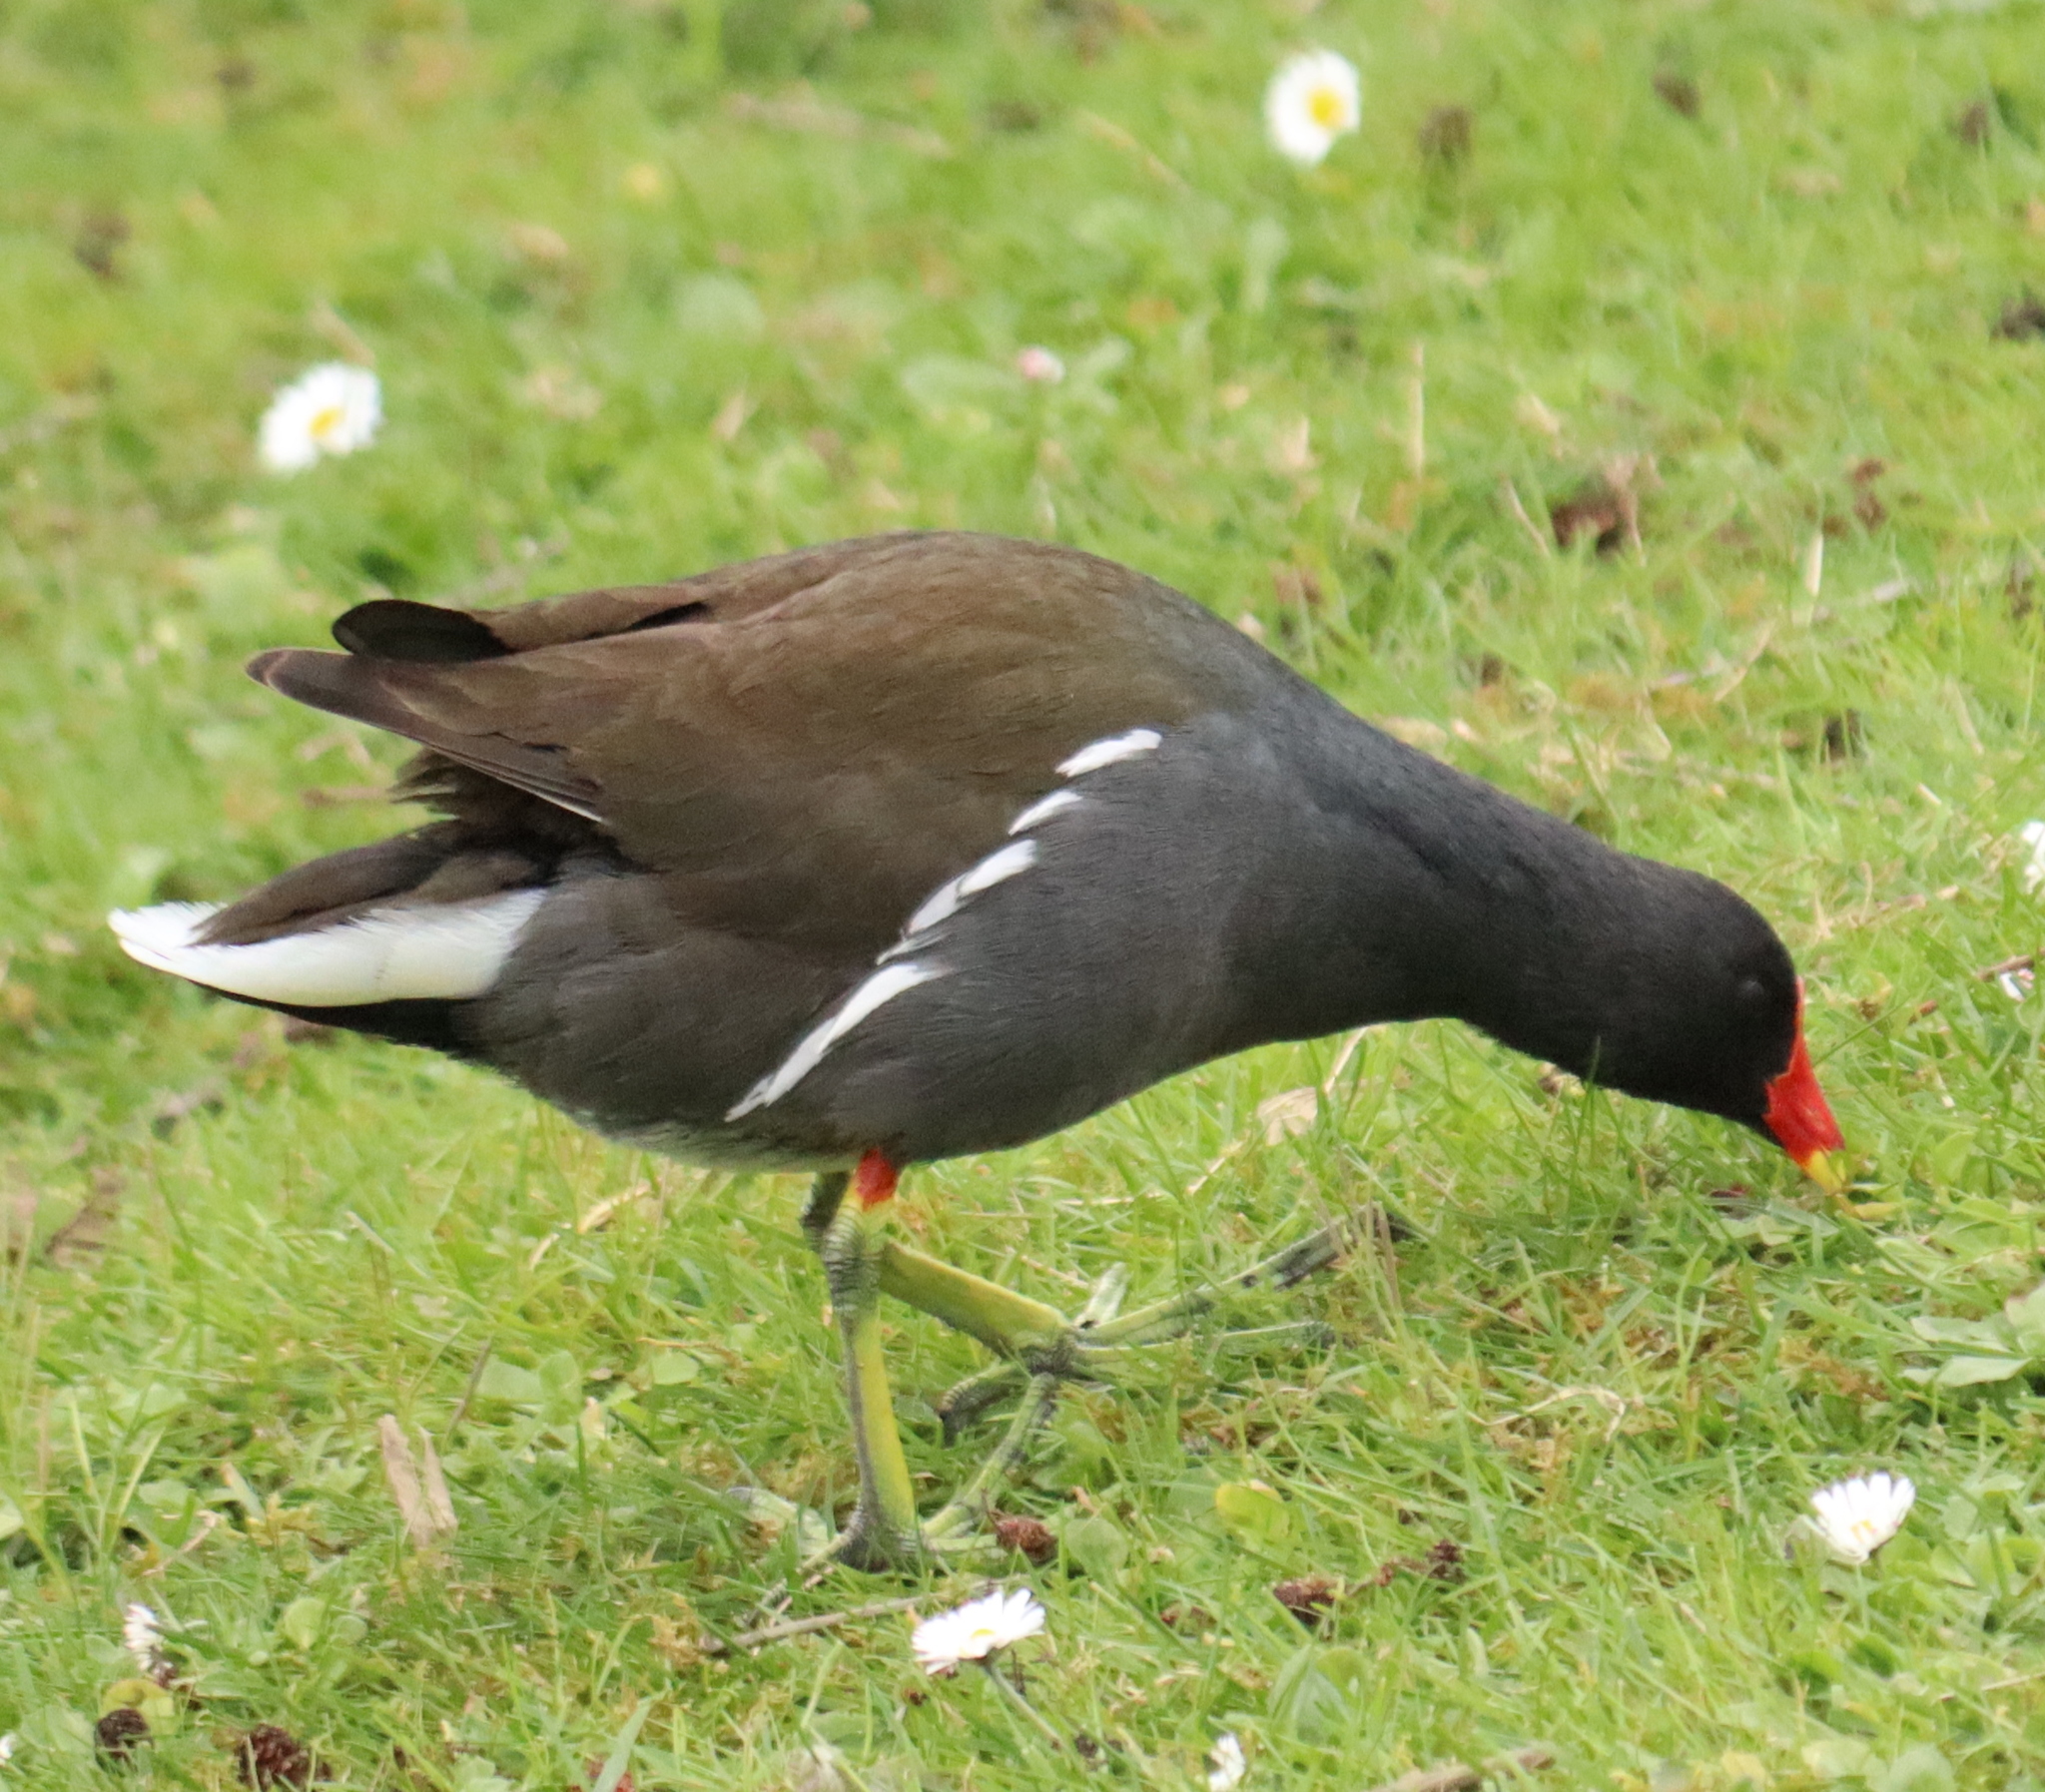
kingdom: Animalia
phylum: Chordata
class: Aves
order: Gruiformes
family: Rallidae
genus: Gallinula
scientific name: Gallinula chloropus
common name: Common moorhen
